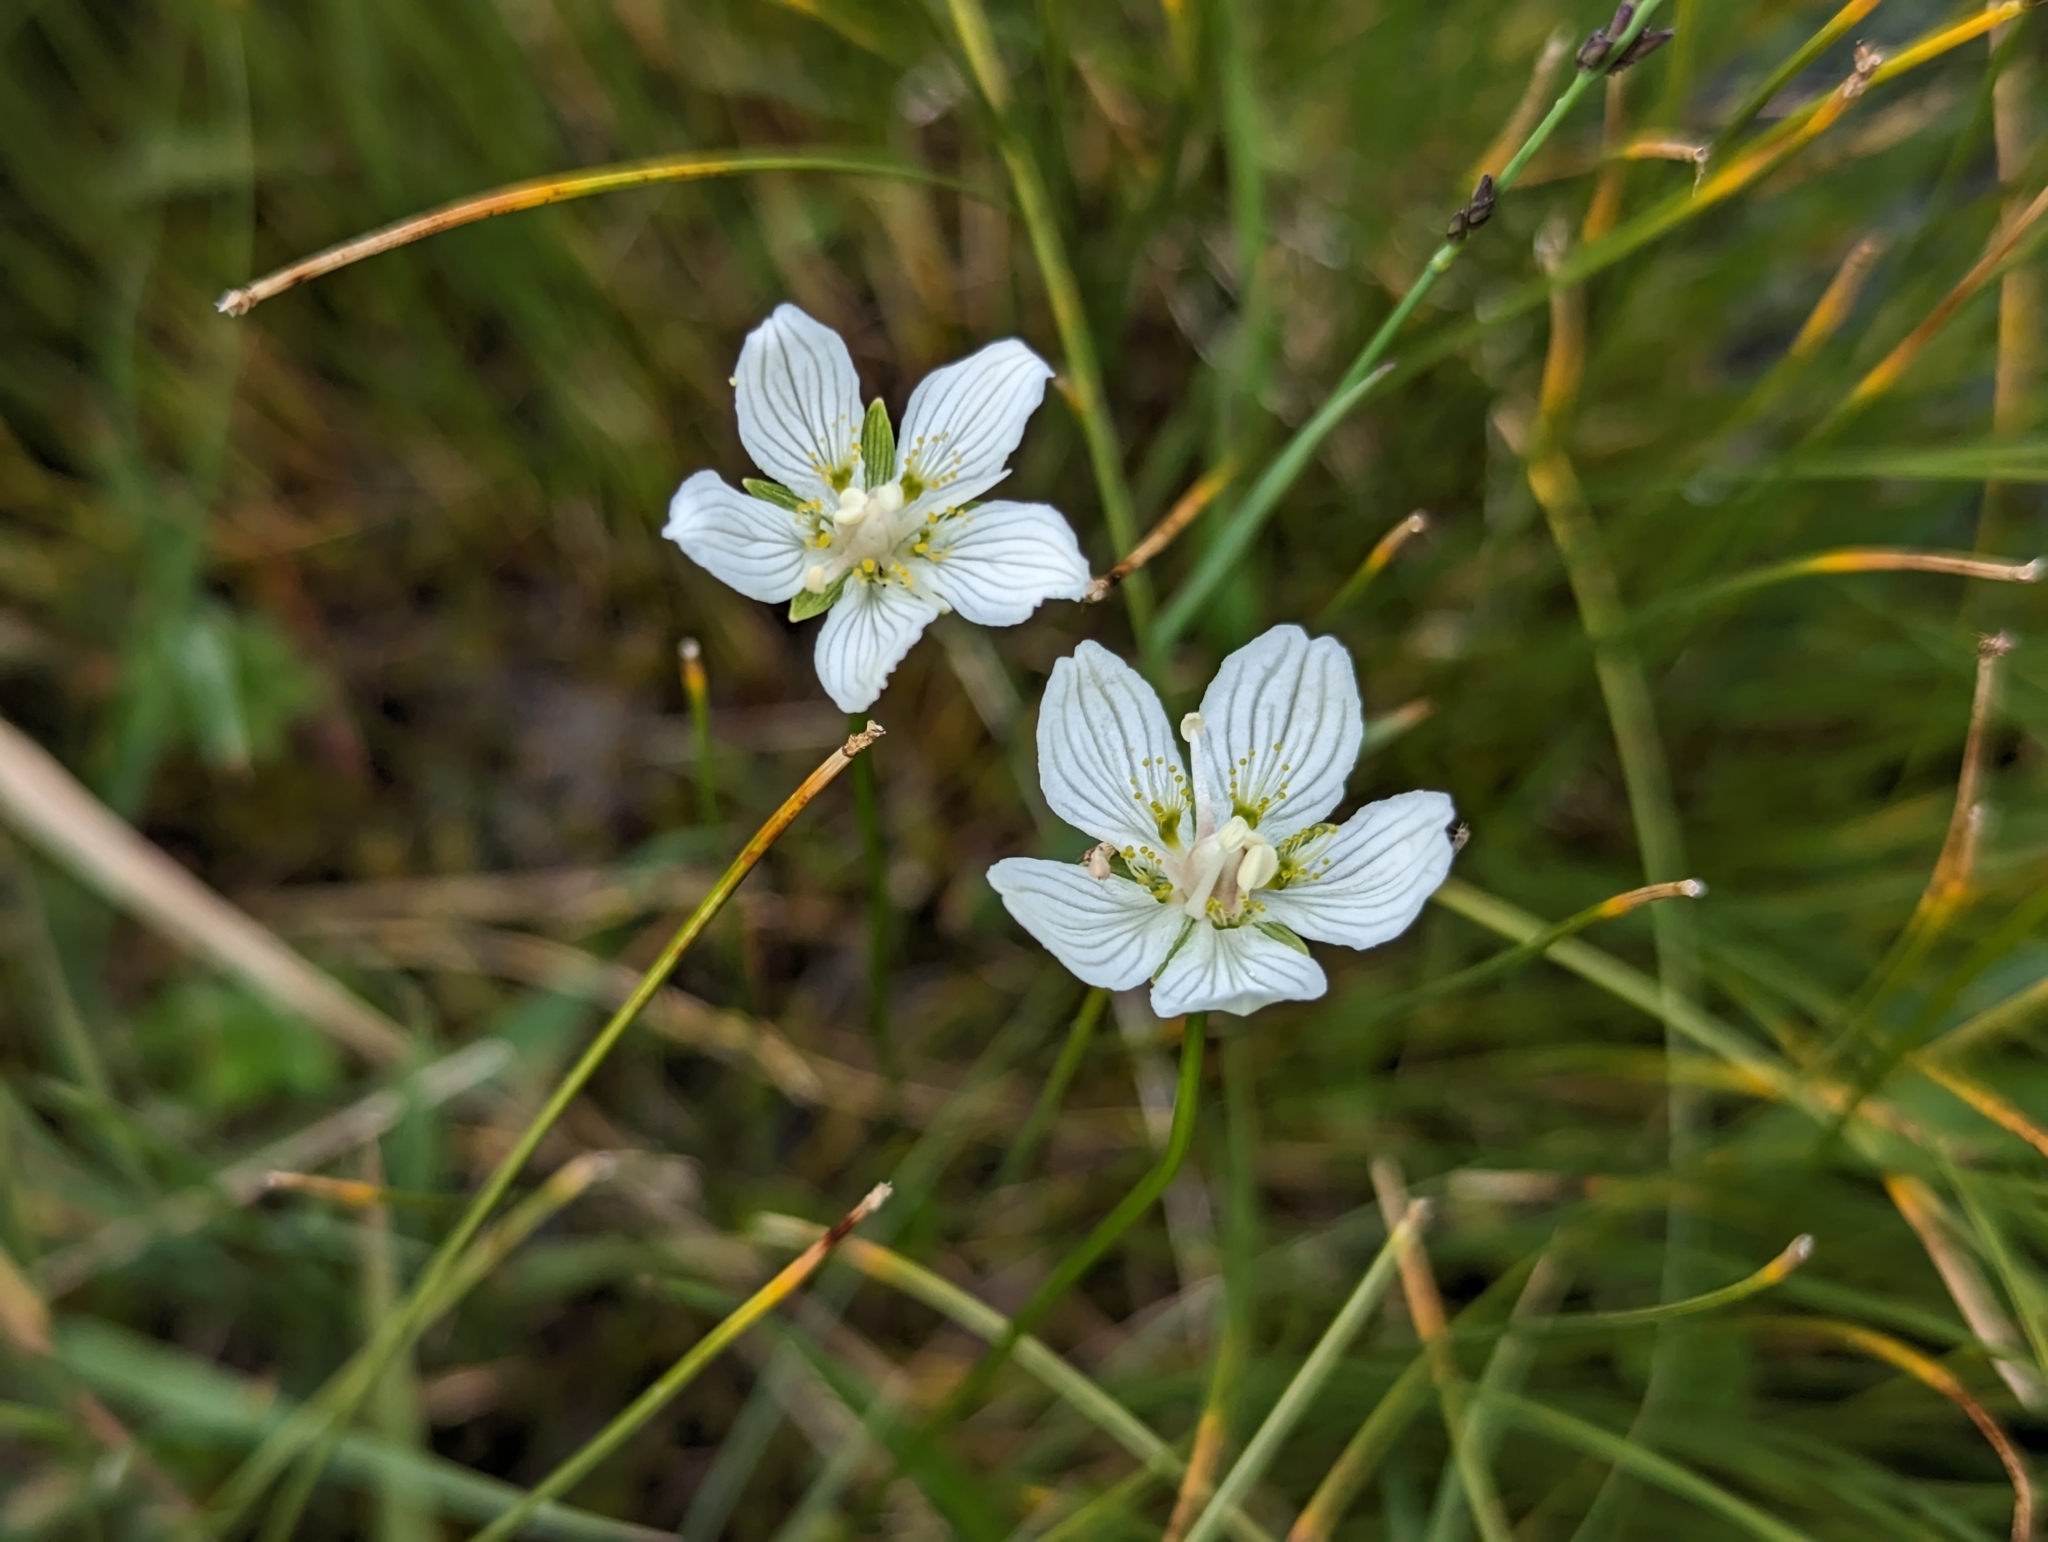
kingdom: Plantae
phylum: Tracheophyta
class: Magnoliopsida
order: Celastrales
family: Parnassiaceae
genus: Parnassia
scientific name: Parnassia palustris
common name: Grass-of-parnassus
